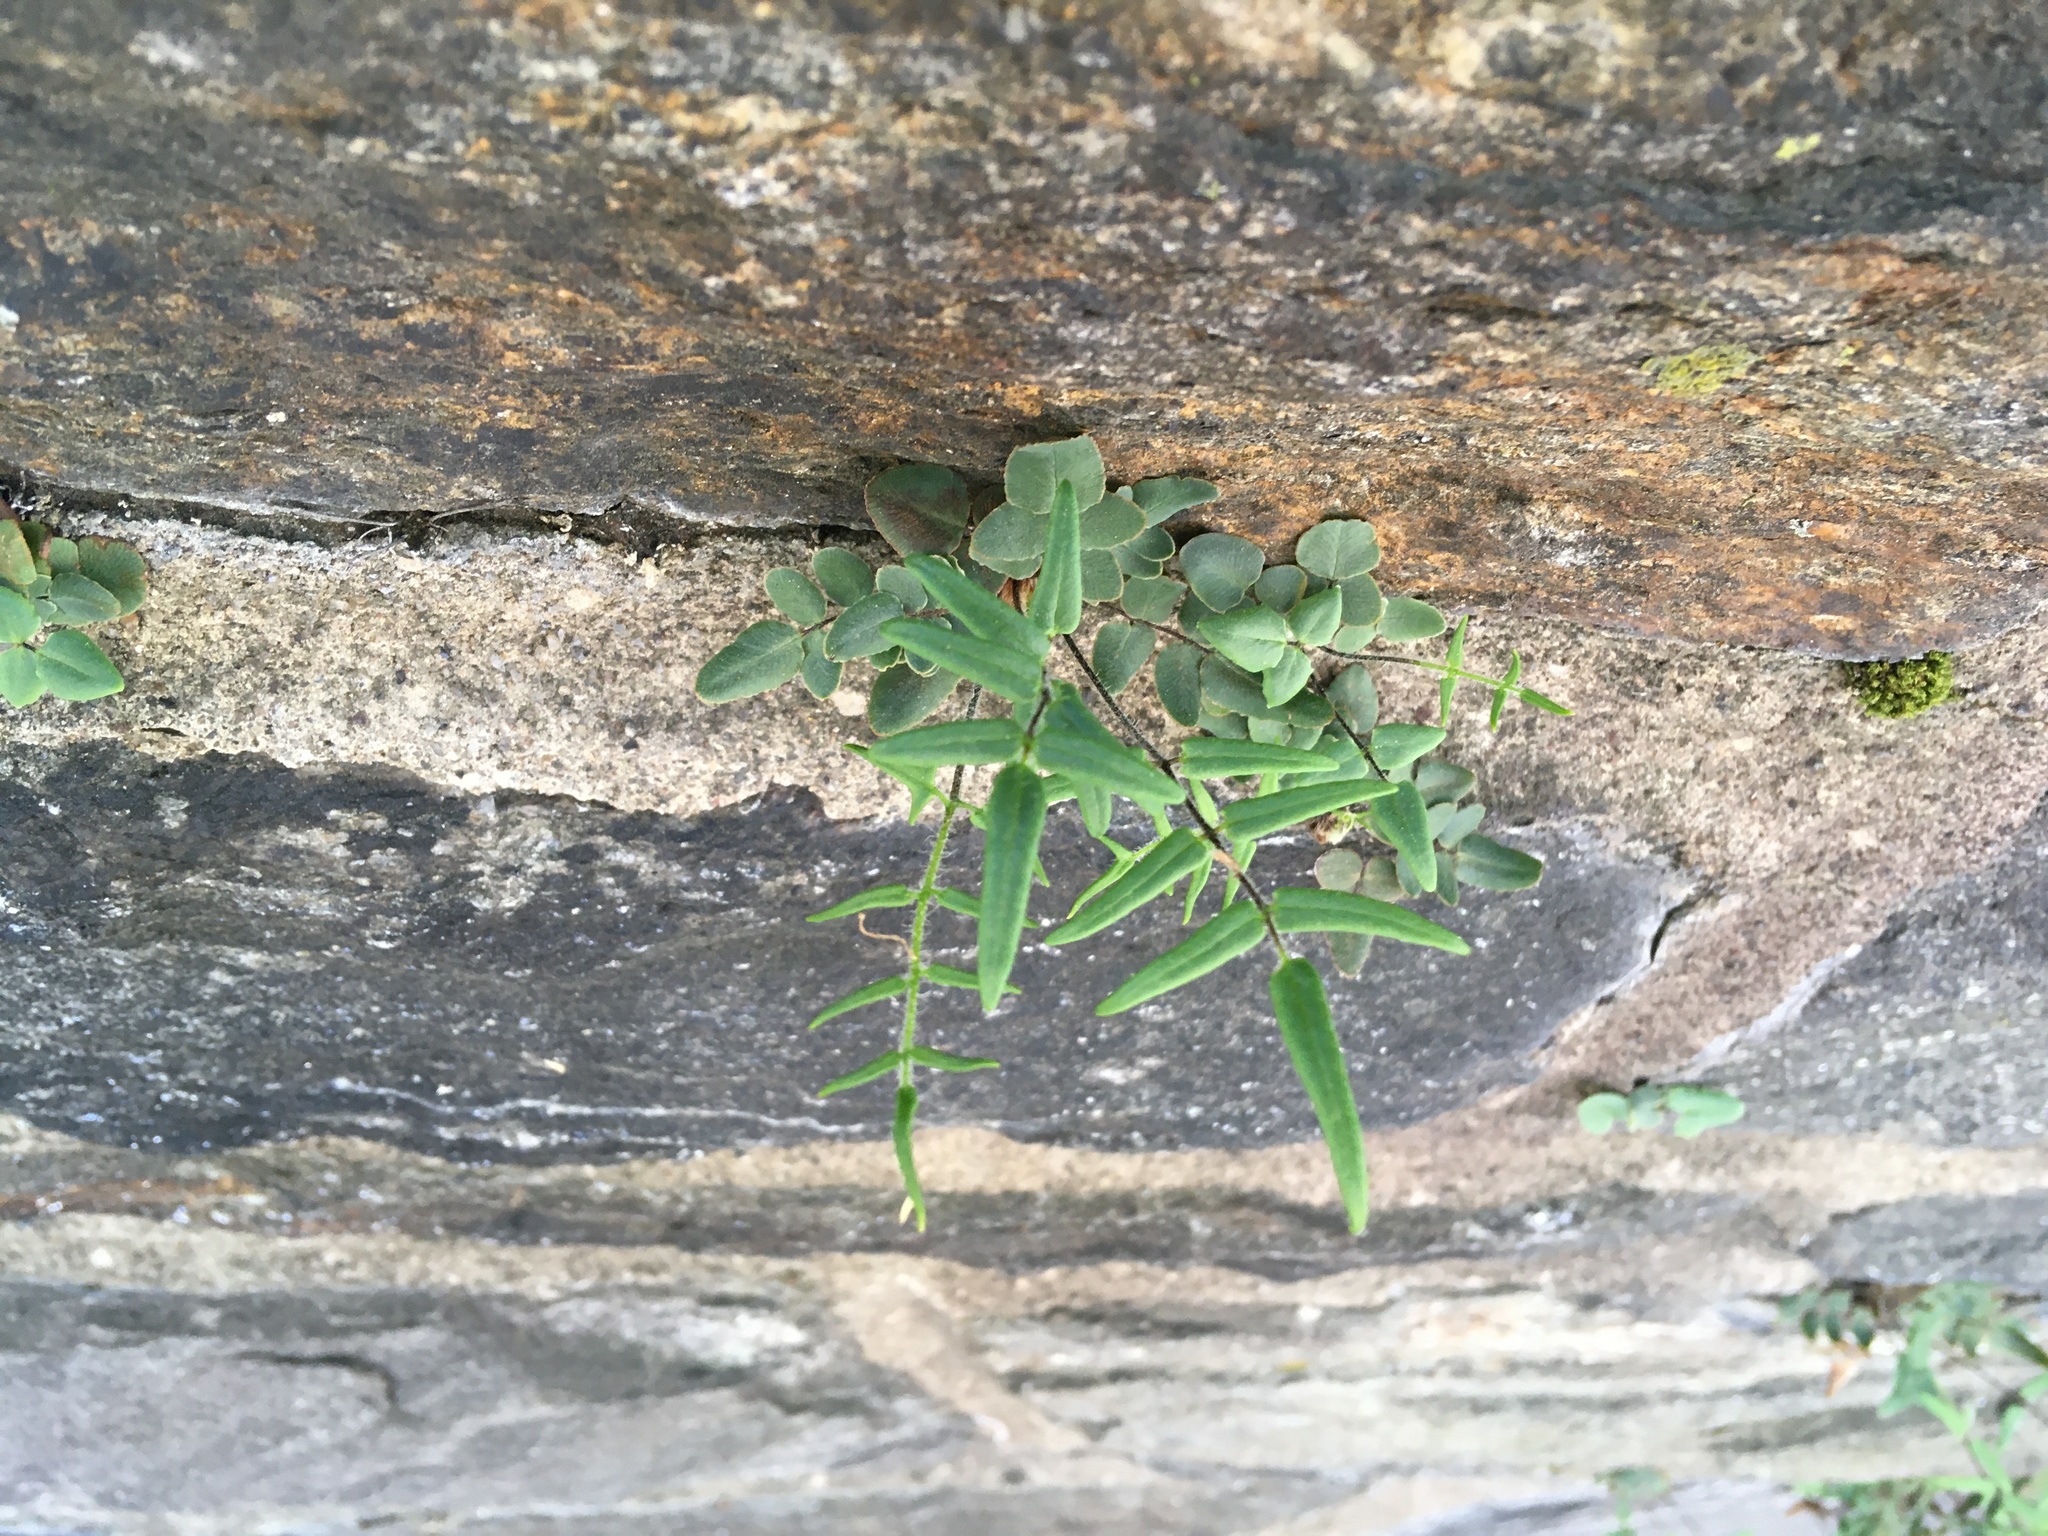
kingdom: Plantae
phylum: Tracheophyta
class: Polypodiopsida
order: Polypodiales
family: Pteridaceae
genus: Pellaea
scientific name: Pellaea atropurpurea
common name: Hairy cliffbrake
